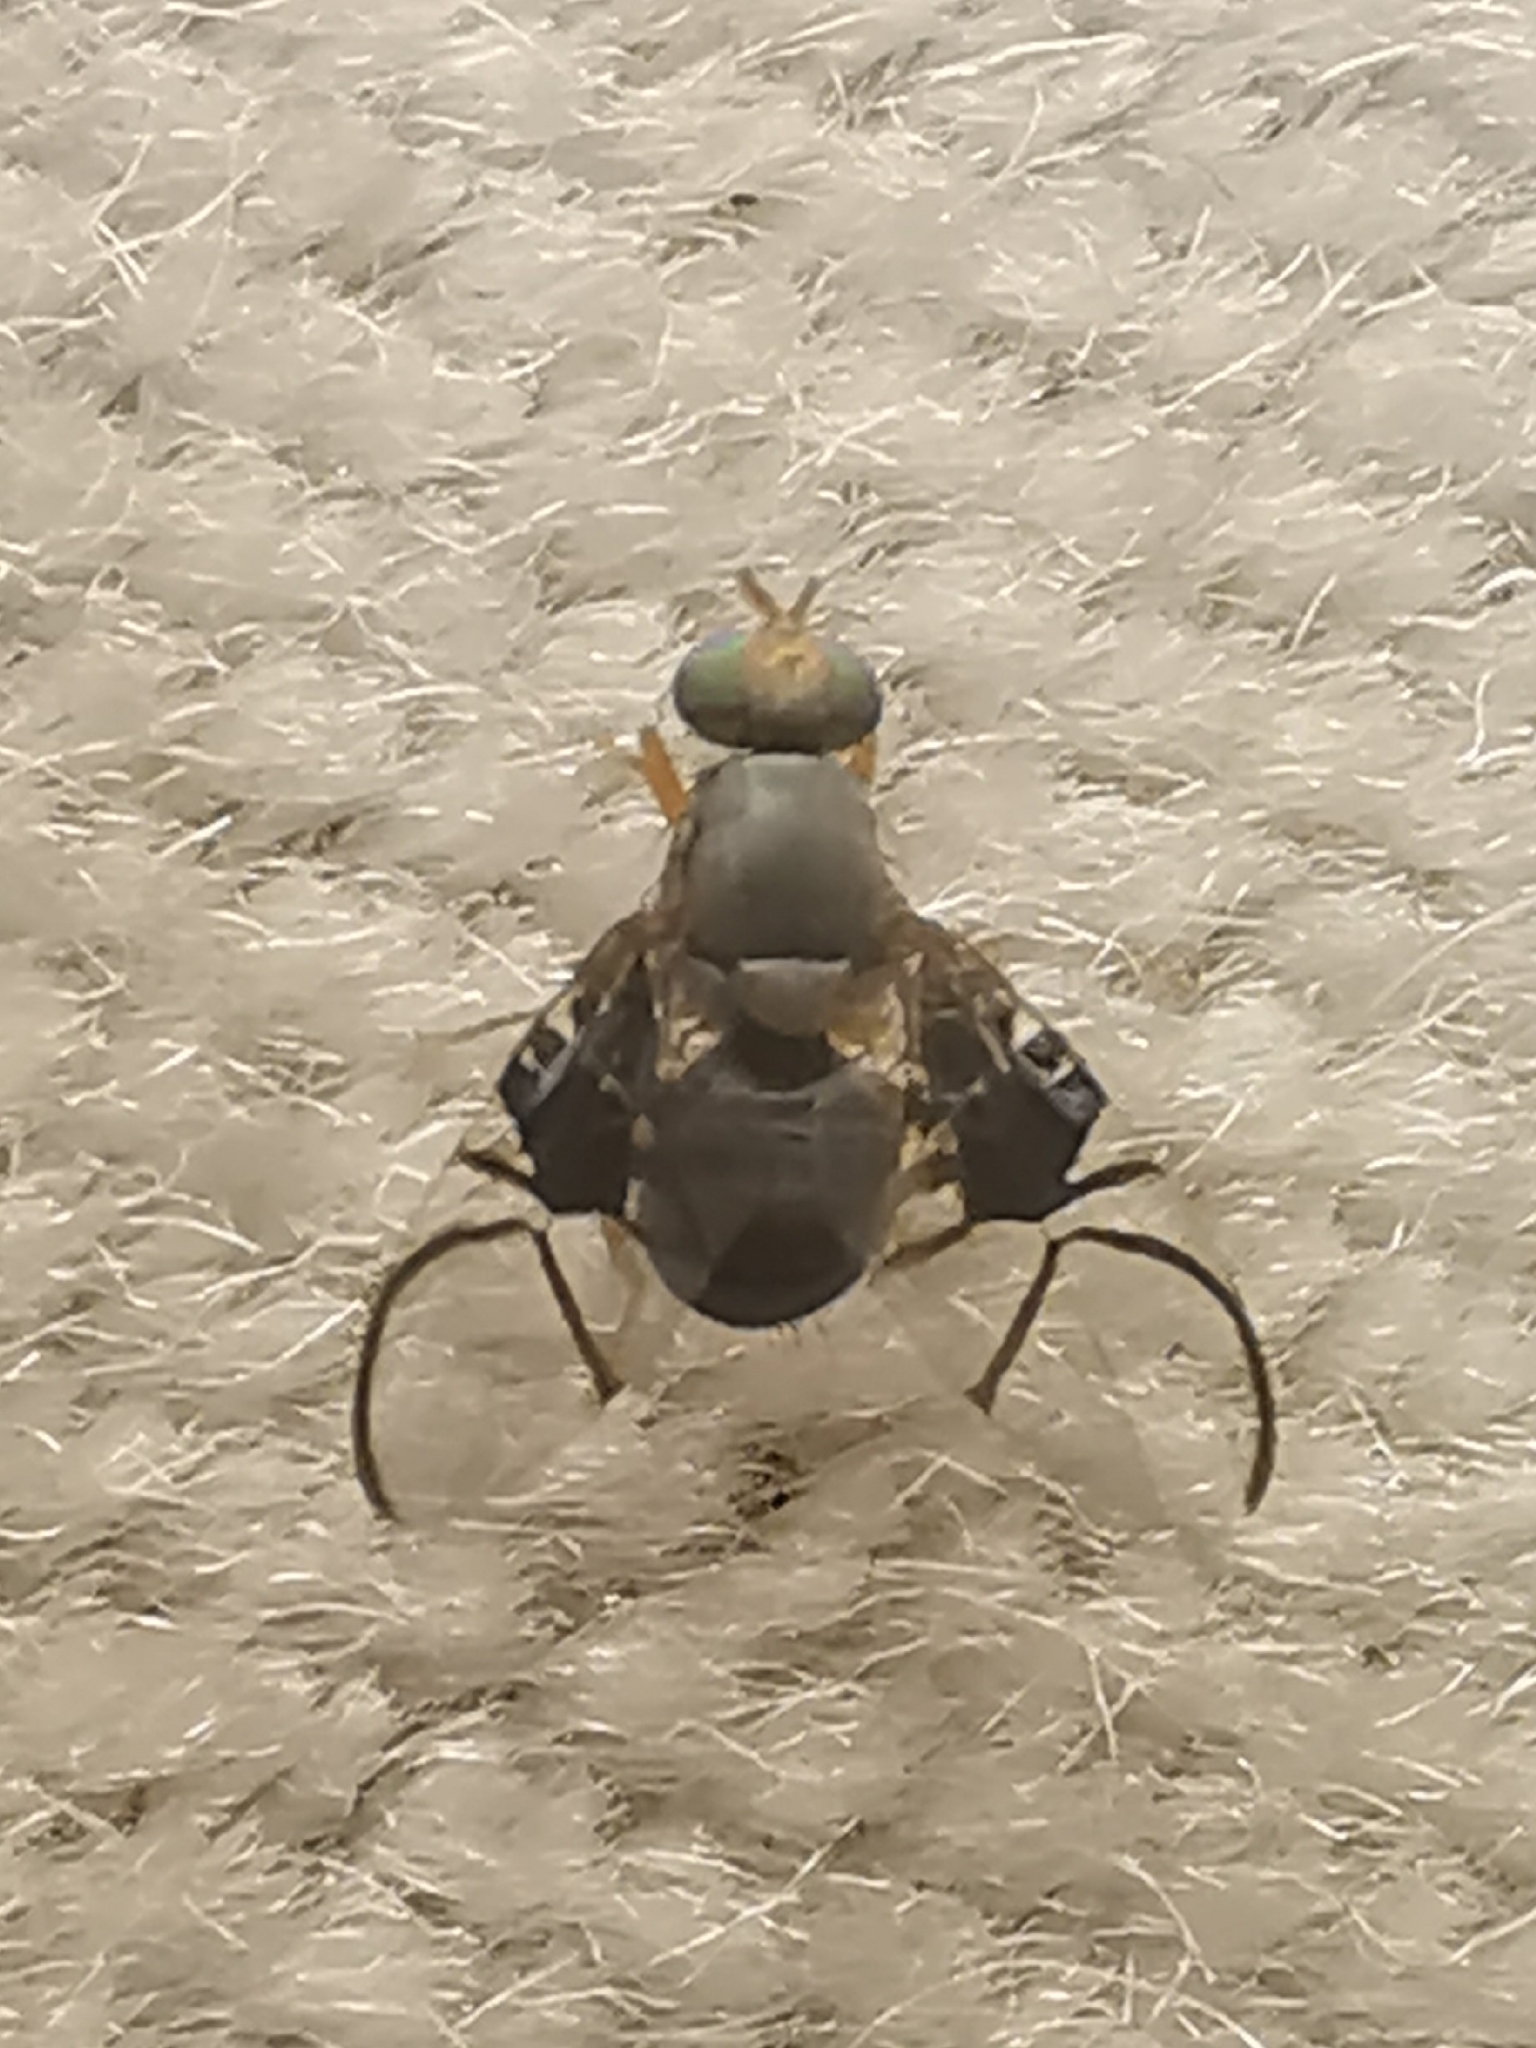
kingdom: Animalia
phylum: Arthropoda
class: Insecta
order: Diptera
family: Tephritidae
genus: Anomoia
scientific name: Anomoia purmunda
